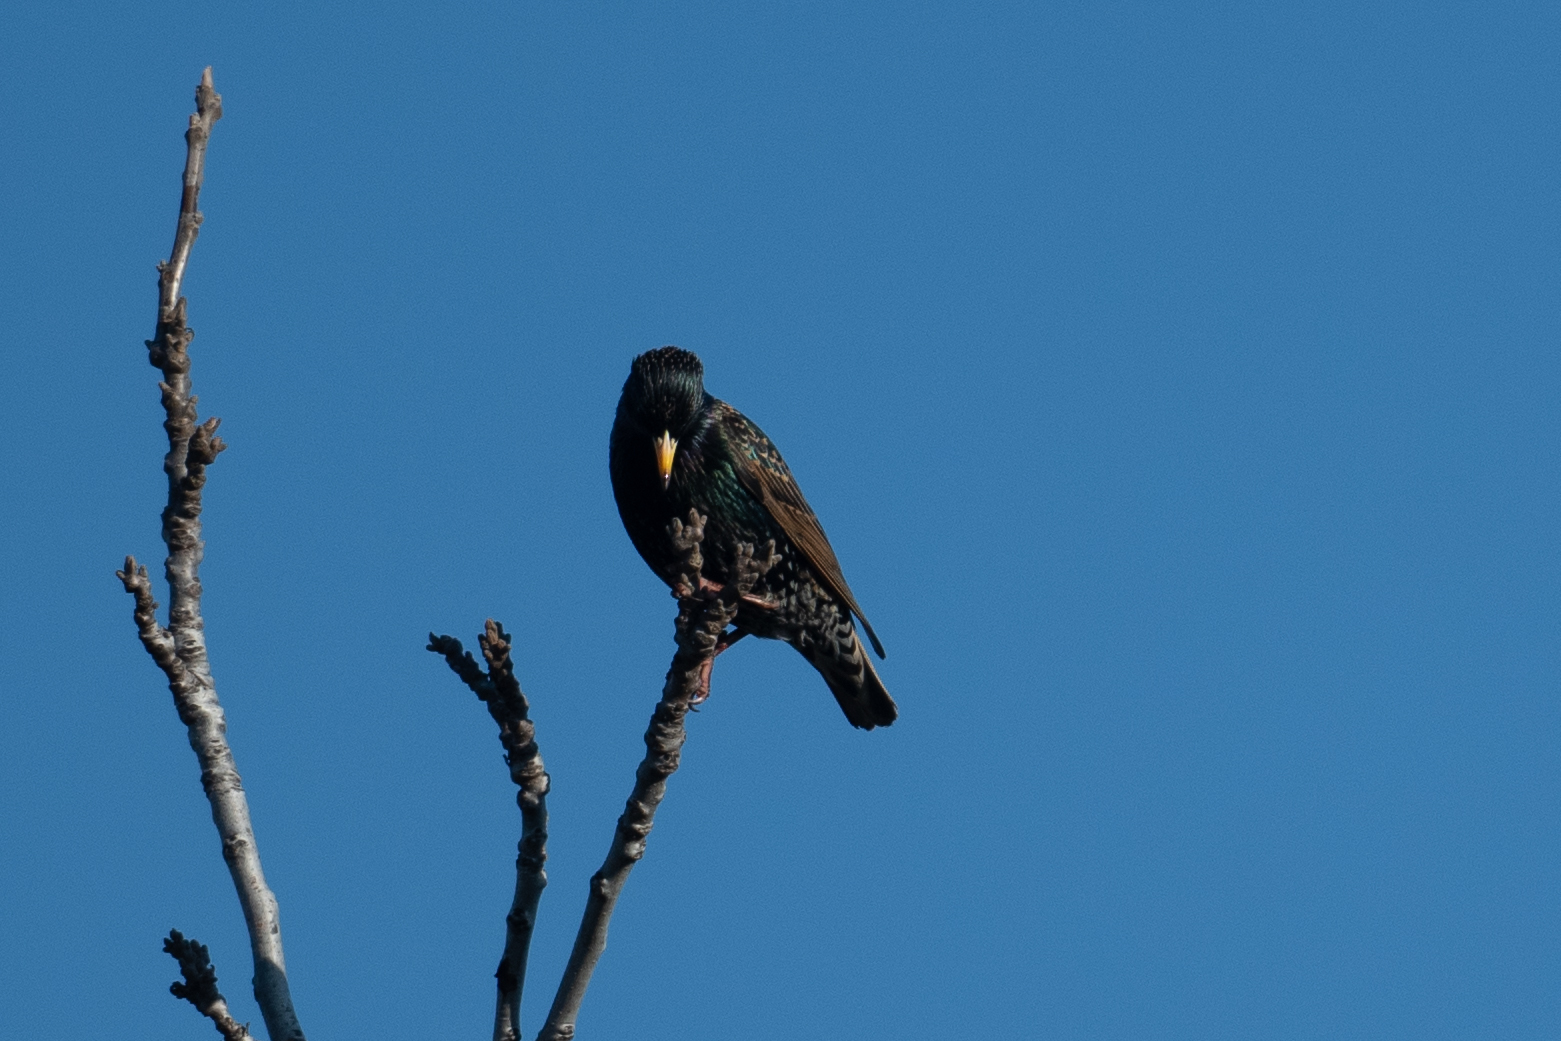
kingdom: Animalia
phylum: Chordata
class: Aves
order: Passeriformes
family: Sturnidae
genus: Sturnus
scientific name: Sturnus vulgaris
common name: Common starling
